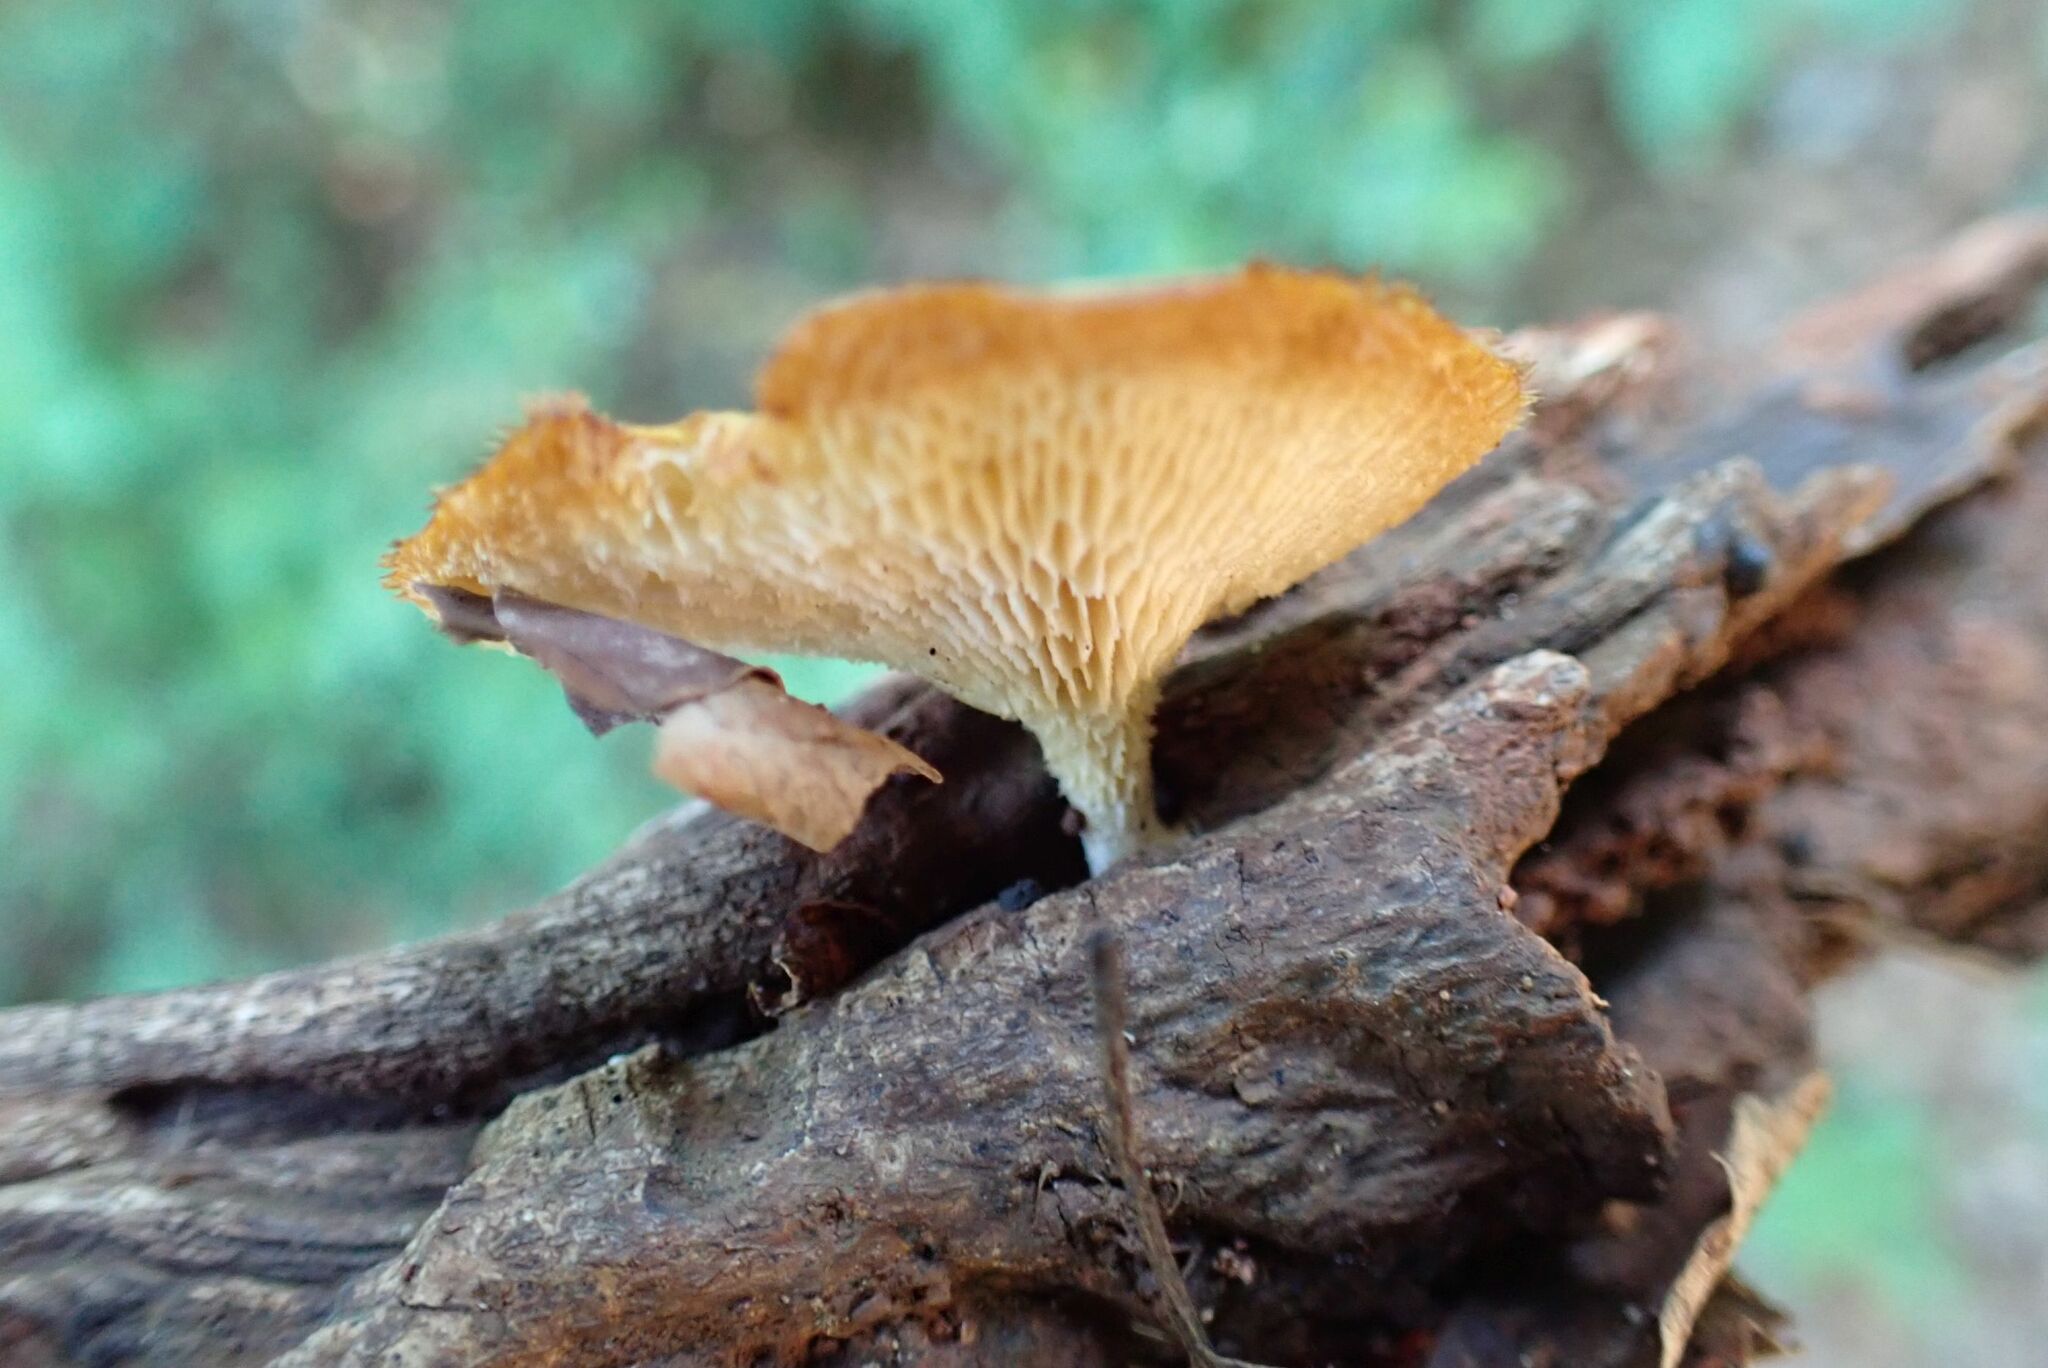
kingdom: Fungi
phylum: Basidiomycota
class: Agaricomycetes
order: Polyporales
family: Polyporaceae
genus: Lentinus
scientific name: Lentinus arcularius
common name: Spring polypore
